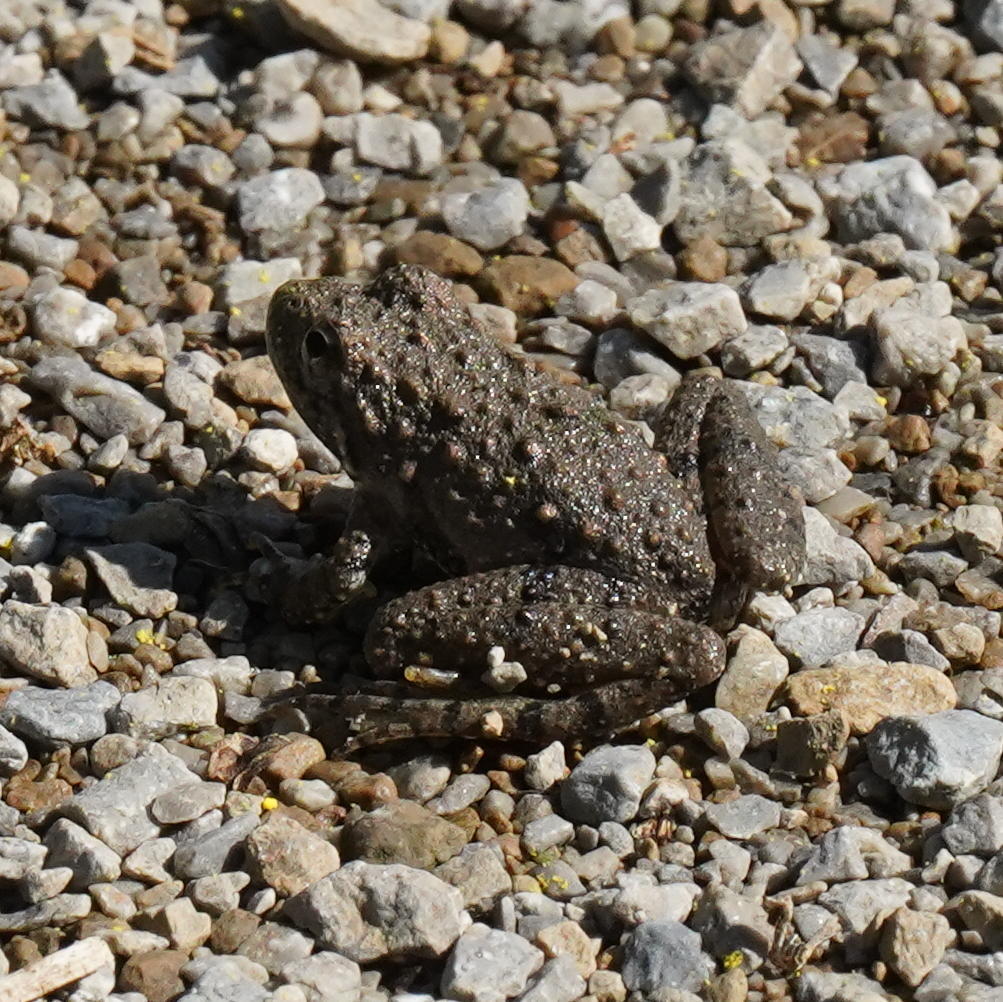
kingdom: Animalia
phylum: Chordata
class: Amphibia
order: Anura
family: Hylidae
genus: Acris
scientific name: Acris blanchardi
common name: Blanchard's cricket frog
